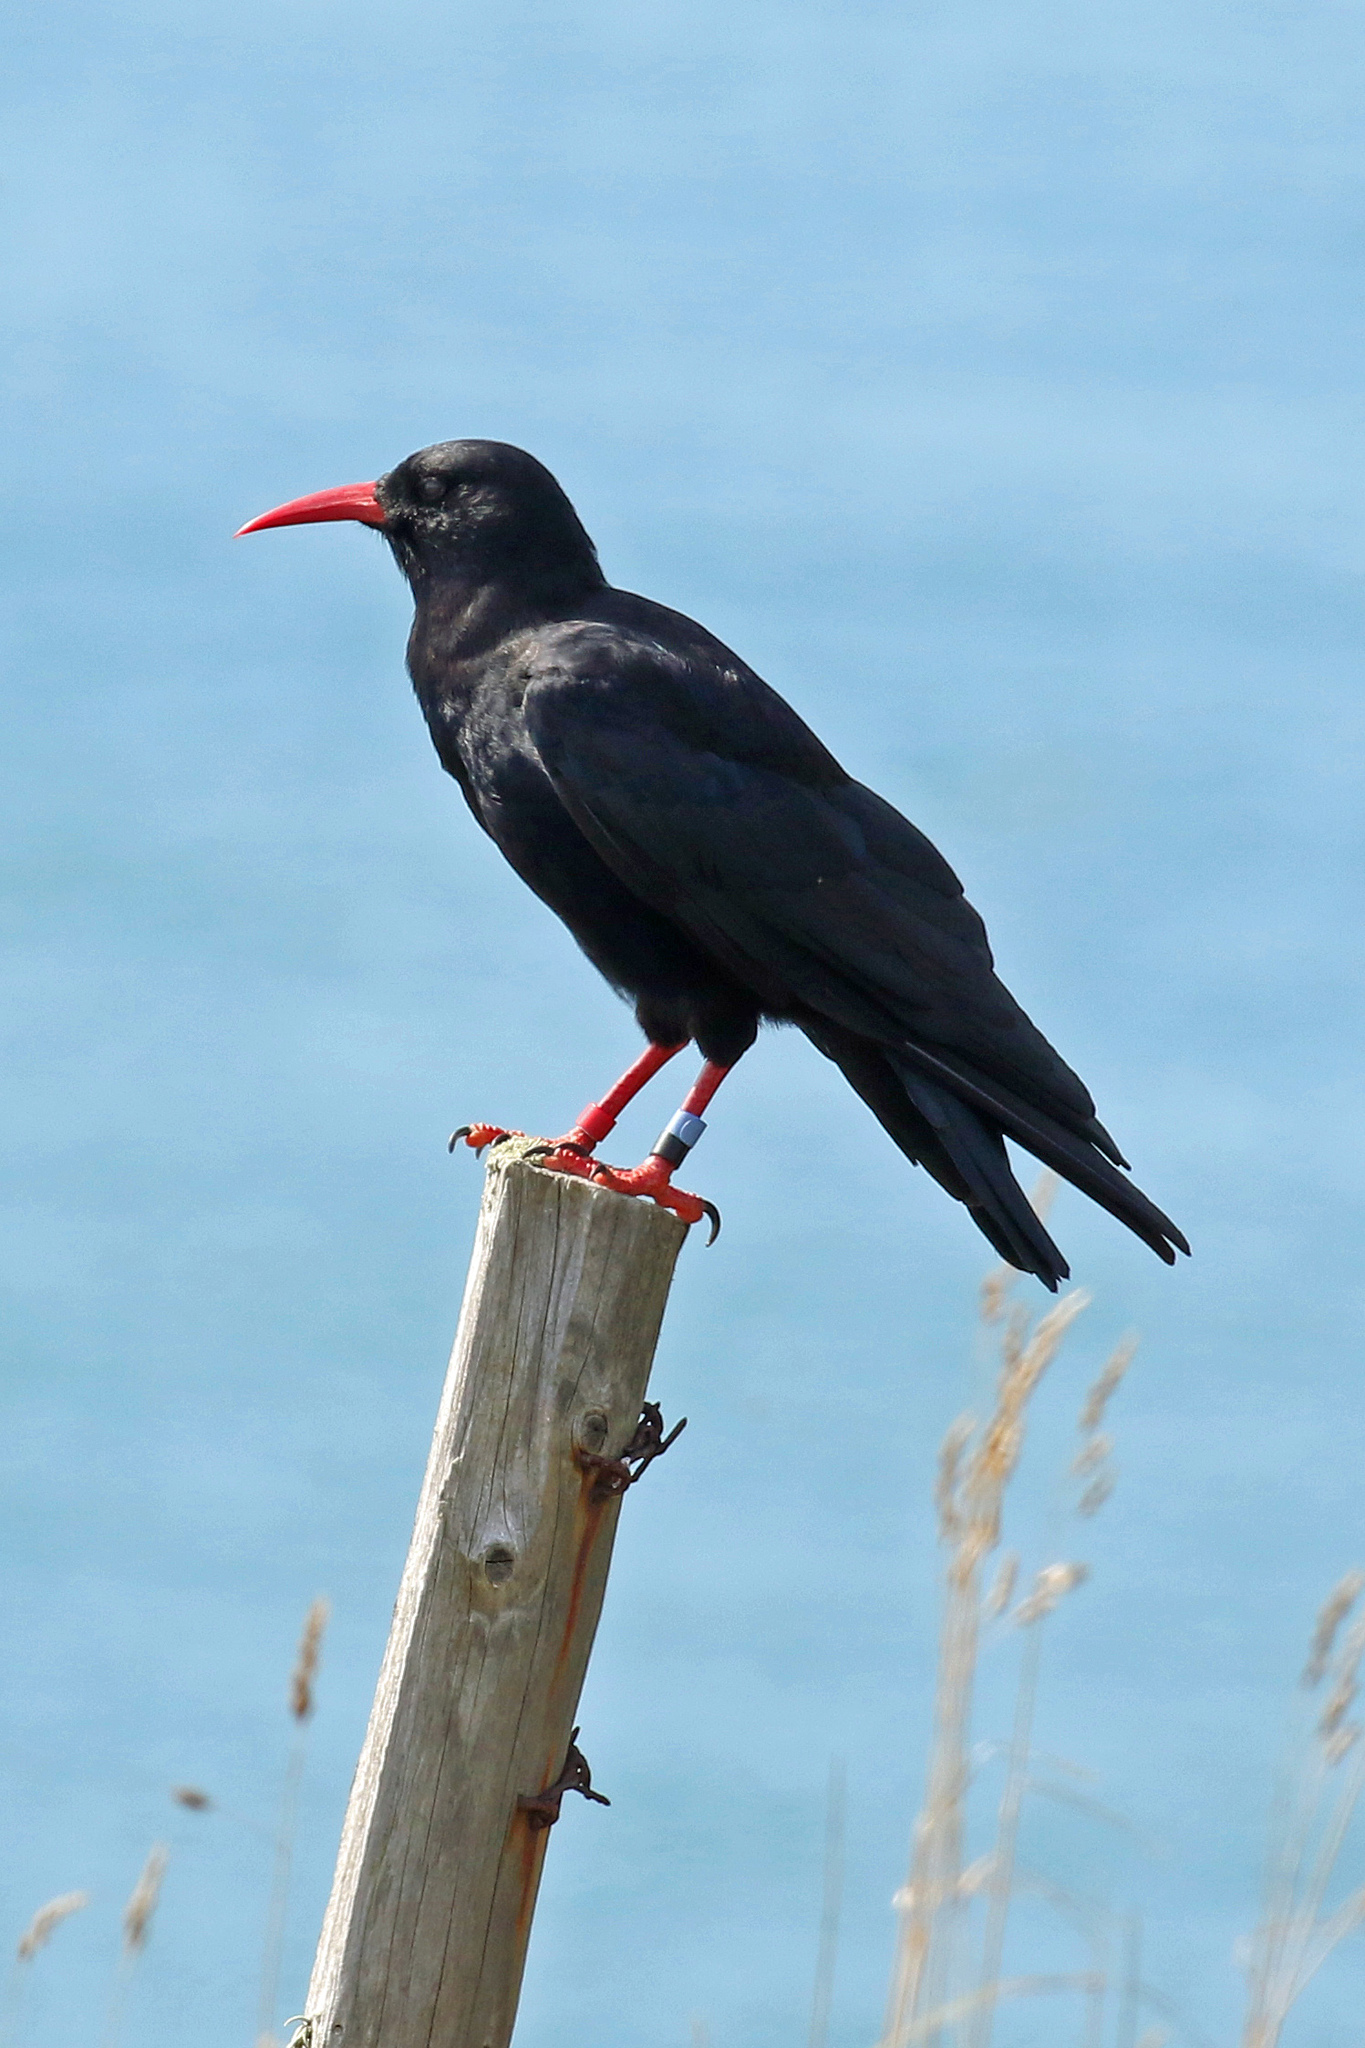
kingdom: Animalia
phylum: Chordata
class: Aves
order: Passeriformes
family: Corvidae
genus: Pyrrhocorax
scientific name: Pyrrhocorax pyrrhocorax
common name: Red-billed chough
